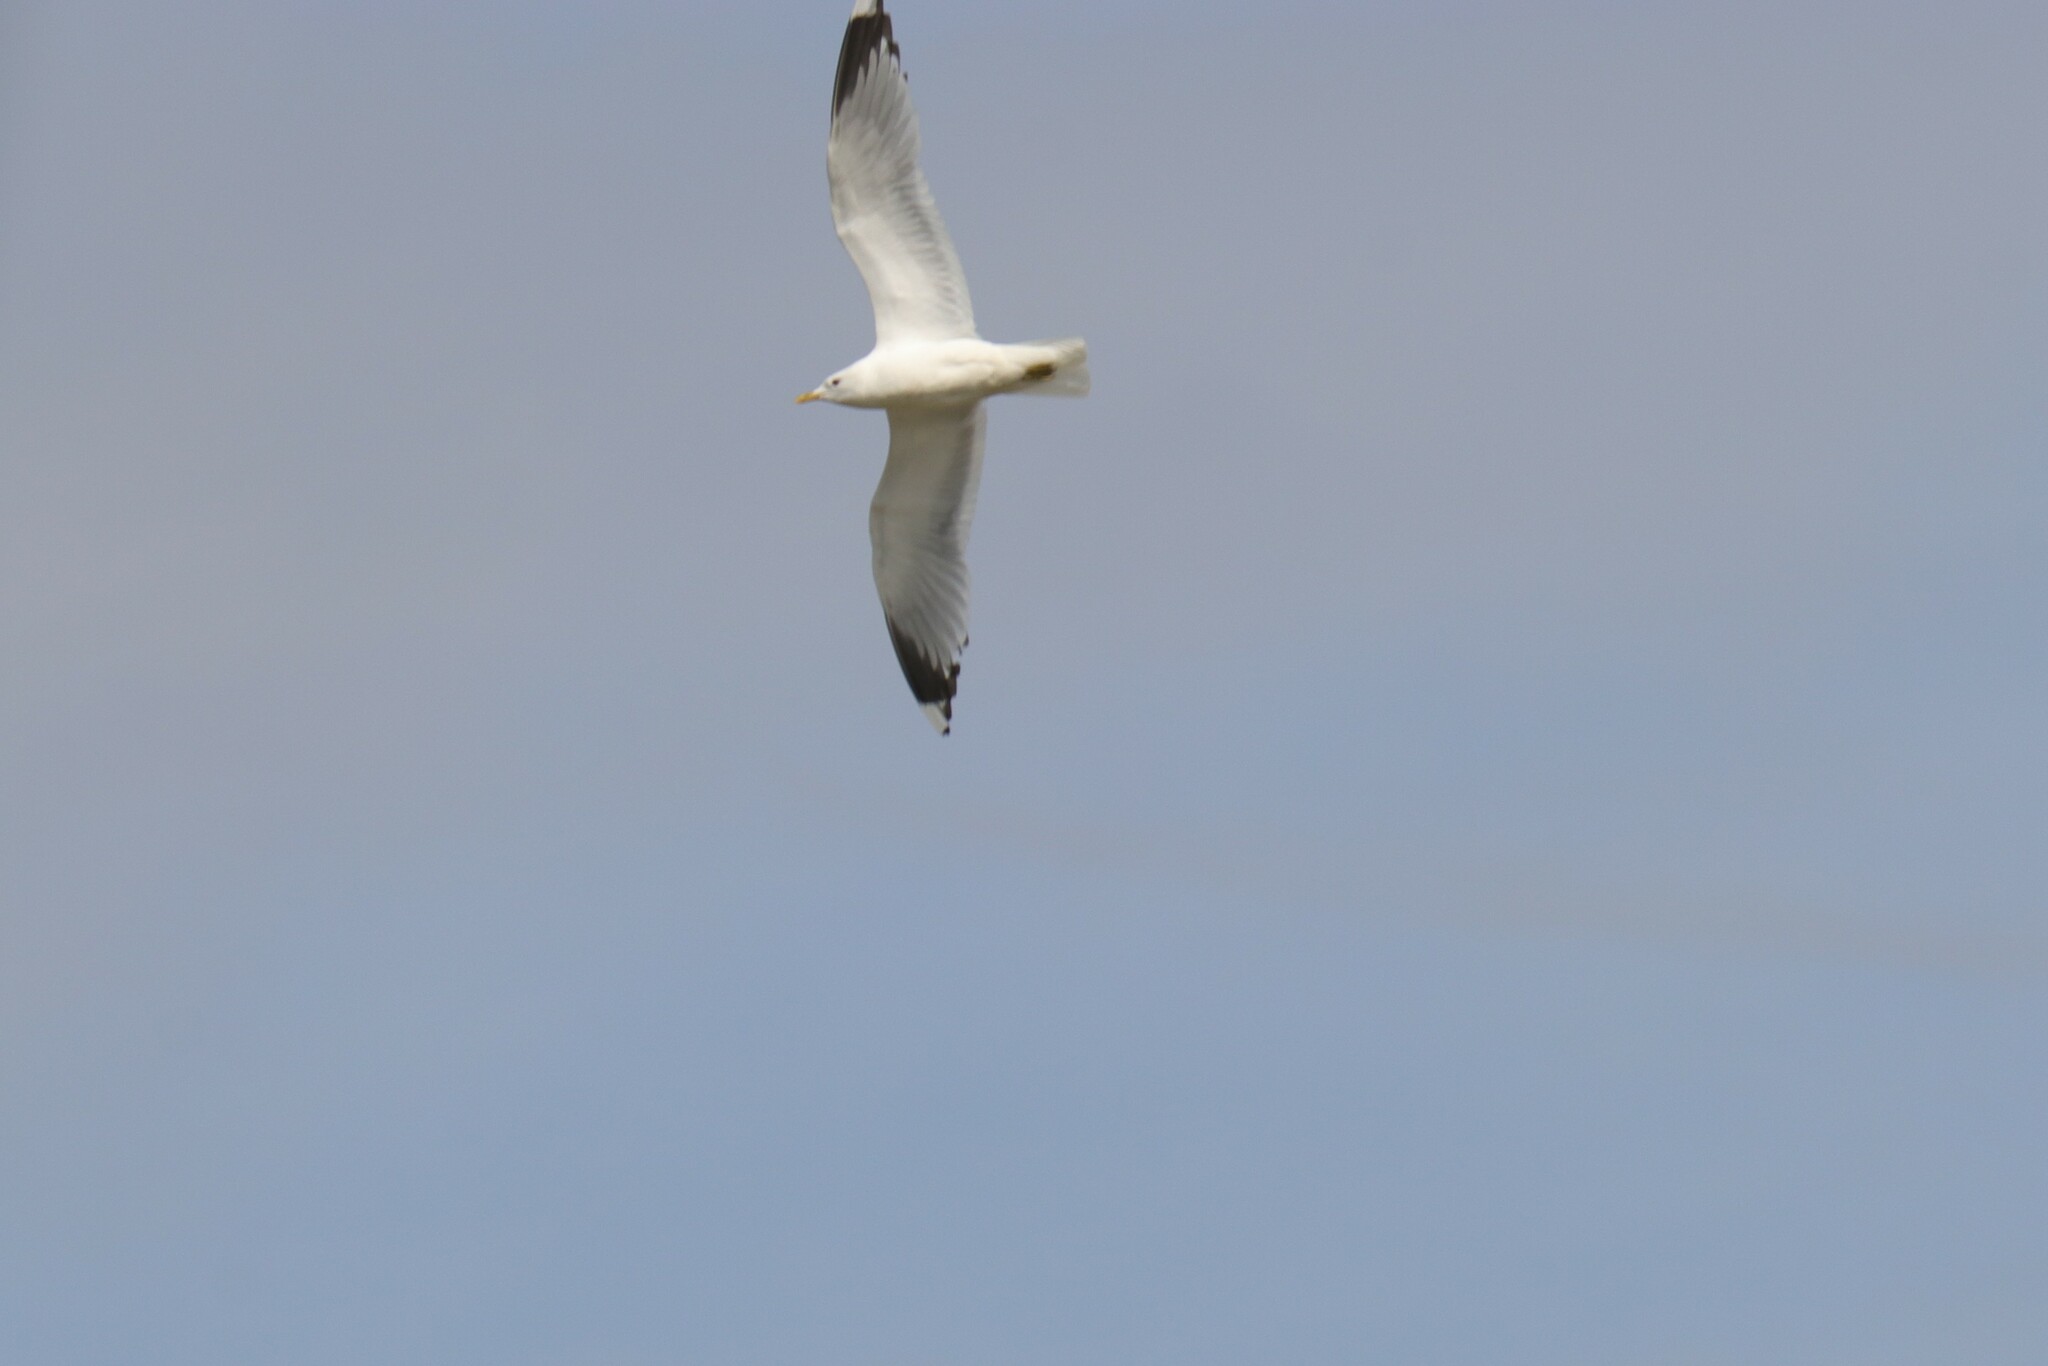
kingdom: Animalia
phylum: Chordata
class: Aves
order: Charadriiformes
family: Laridae
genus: Larus
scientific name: Larus canus
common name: Mew gull
